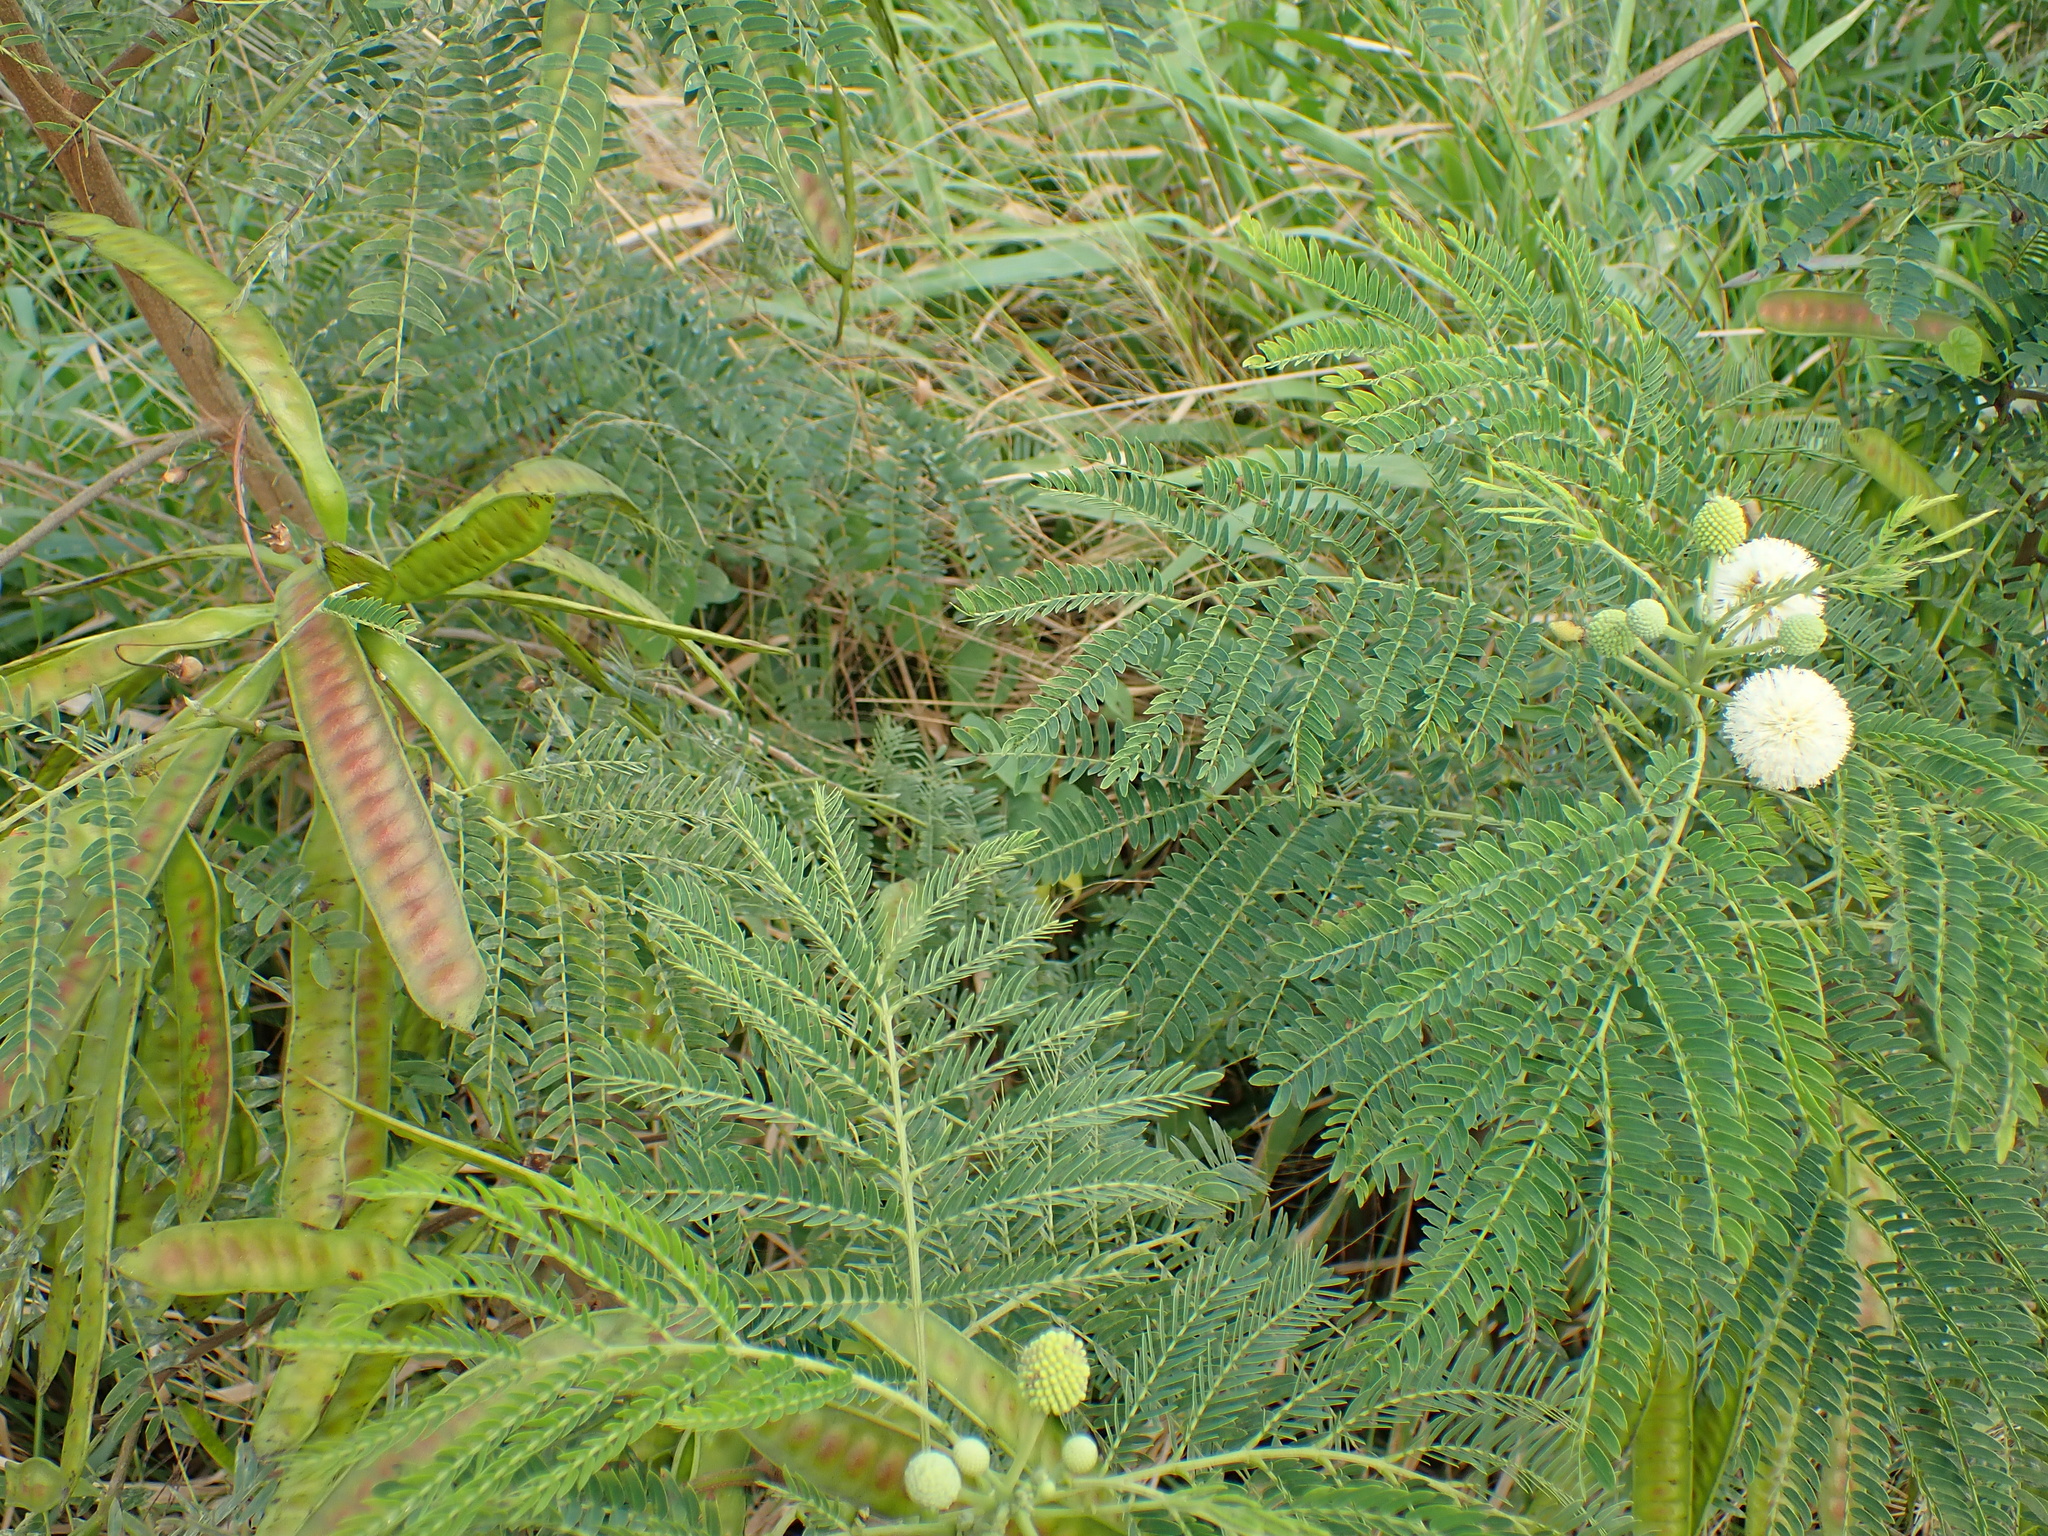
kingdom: Plantae
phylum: Tracheophyta
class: Magnoliopsida
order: Fabales
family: Fabaceae
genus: Leucaena
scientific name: Leucaena leucocephala
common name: White leadtree
